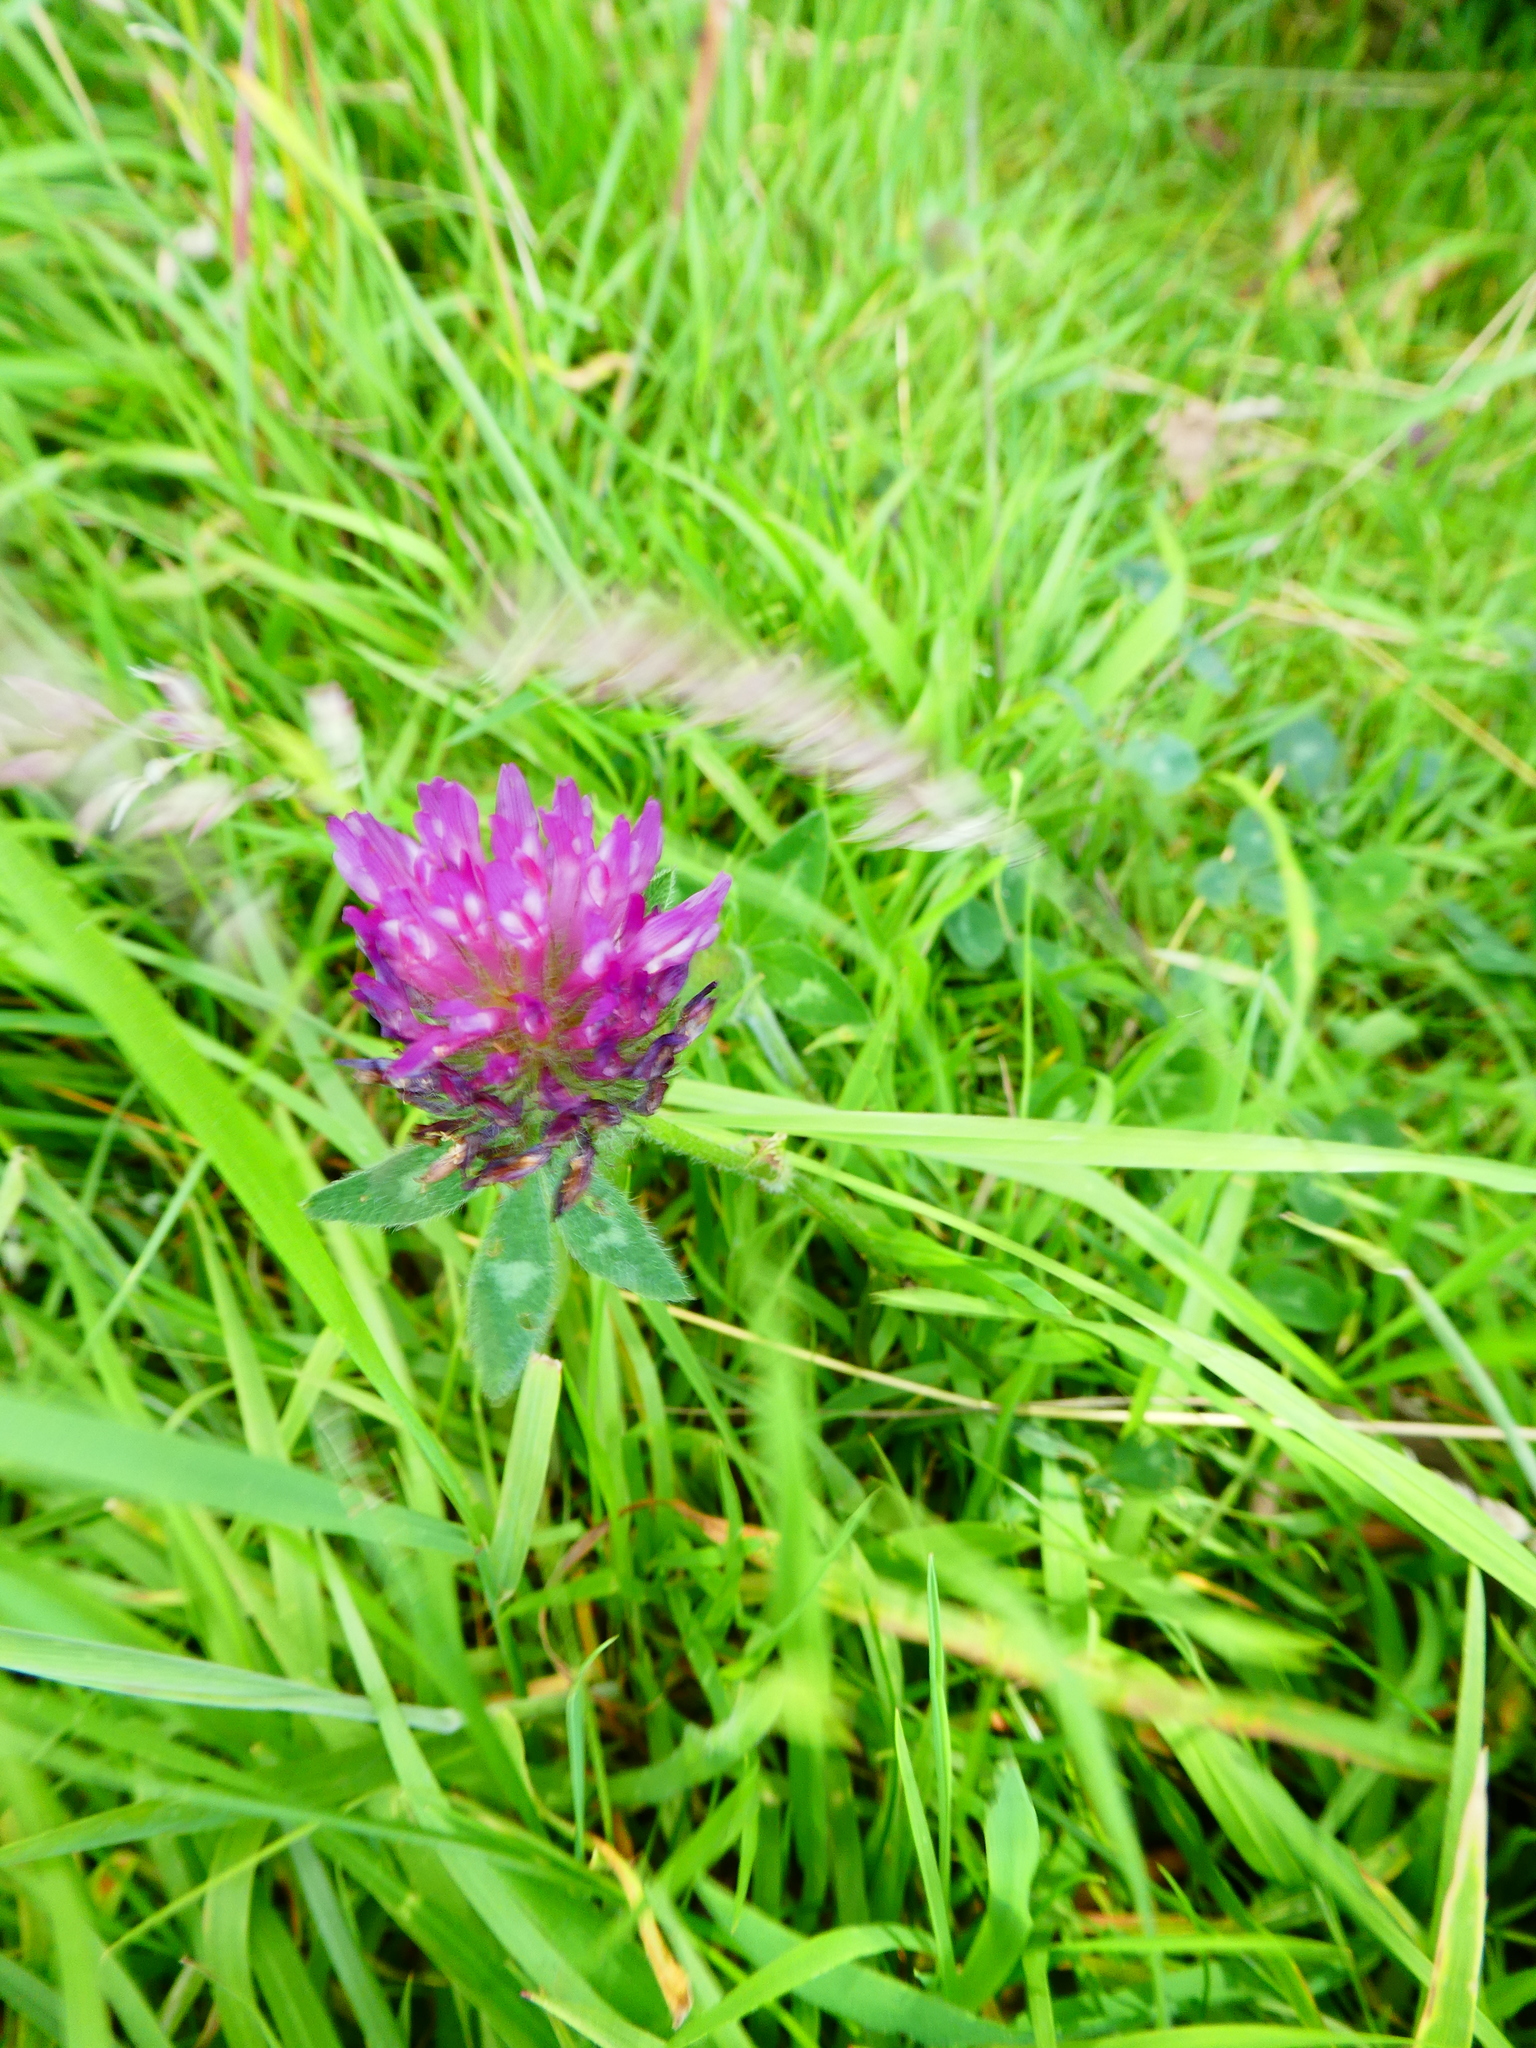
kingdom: Plantae
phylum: Tracheophyta
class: Magnoliopsida
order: Fabales
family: Fabaceae
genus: Trifolium
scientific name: Trifolium pratense
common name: Red clover
